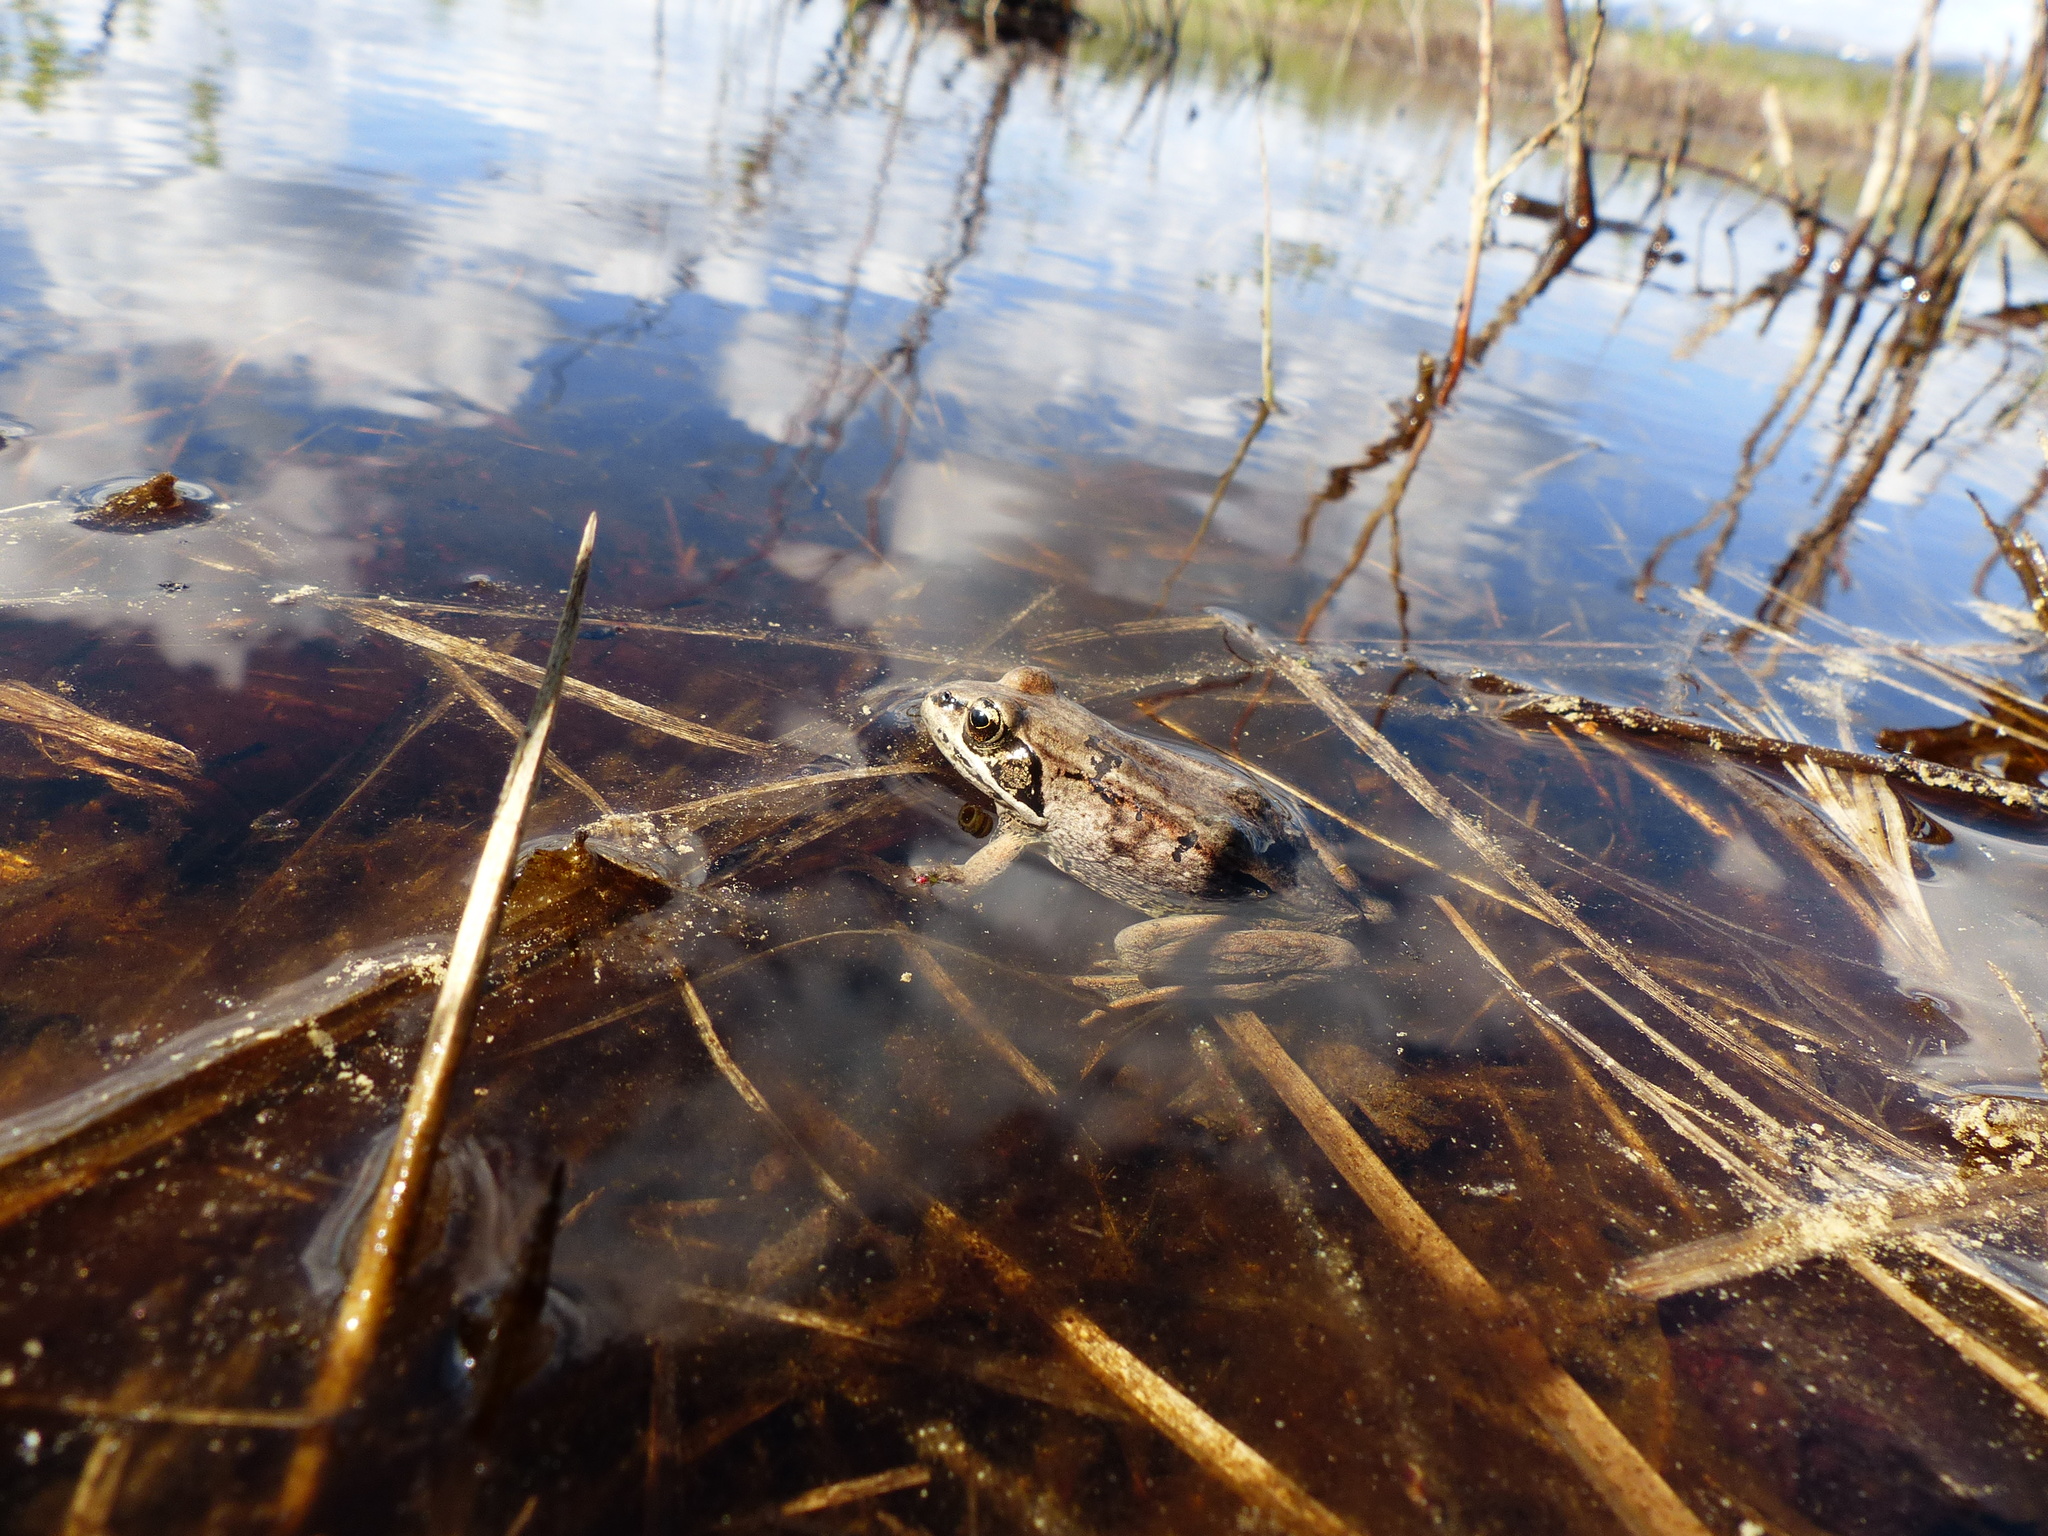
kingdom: Animalia
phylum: Chordata
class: Amphibia
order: Anura
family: Ranidae
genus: Lithobates
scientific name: Lithobates sylvaticus
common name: Wood frog
